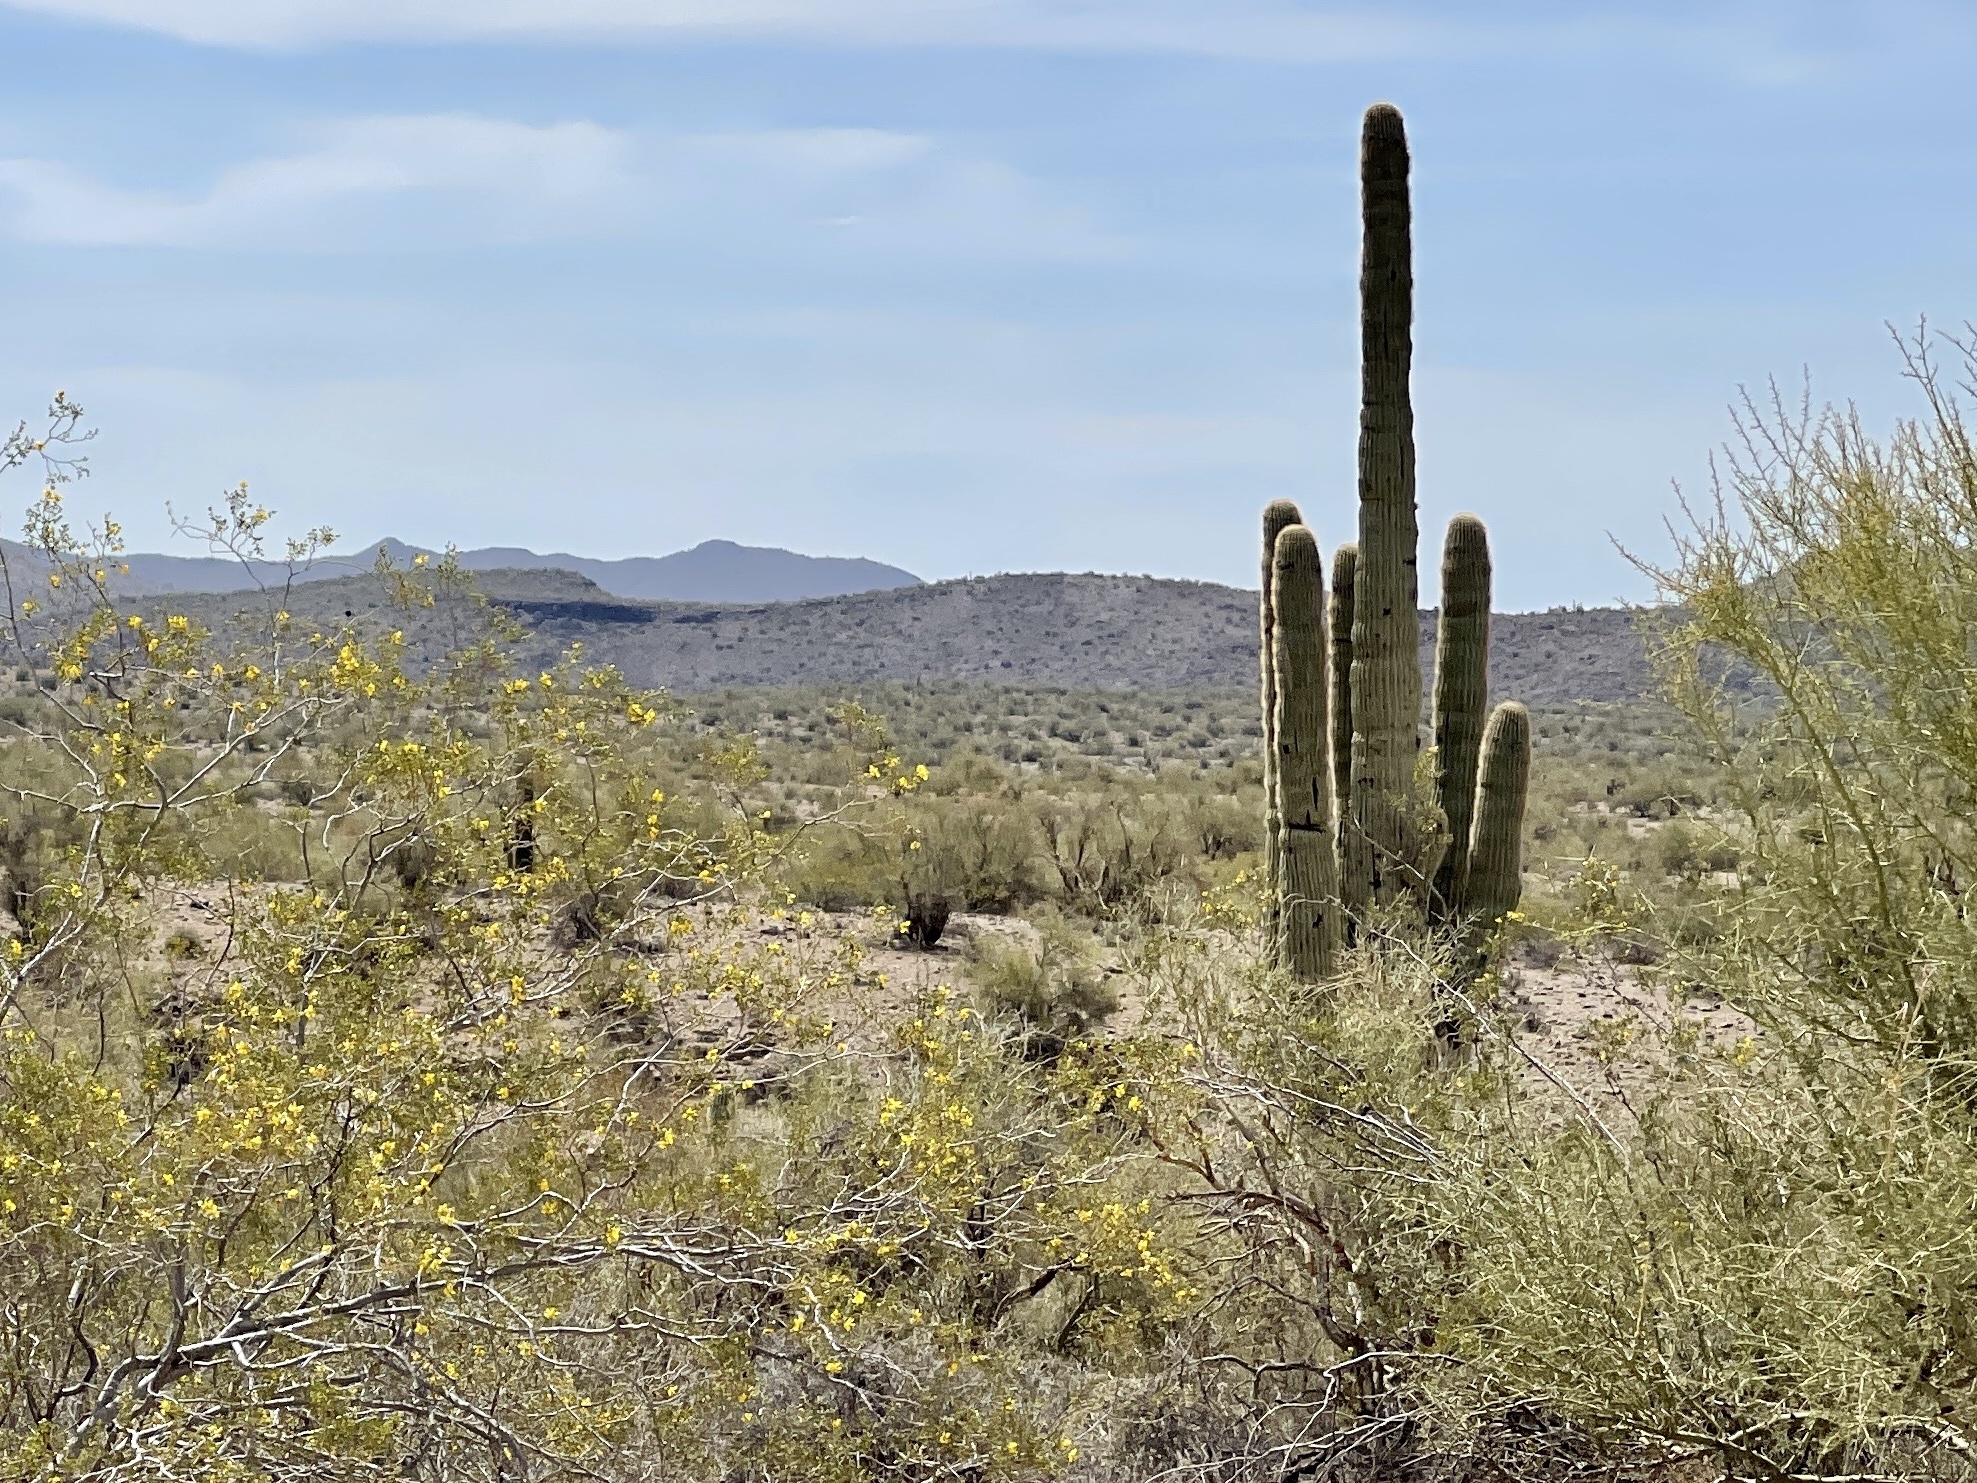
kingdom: Plantae
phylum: Tracheophyta
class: Magnoliopsida
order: Caryophyllales
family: Cactaceae
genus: Carnegiea
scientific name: Carnegiea gigantea
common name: Saguaro
